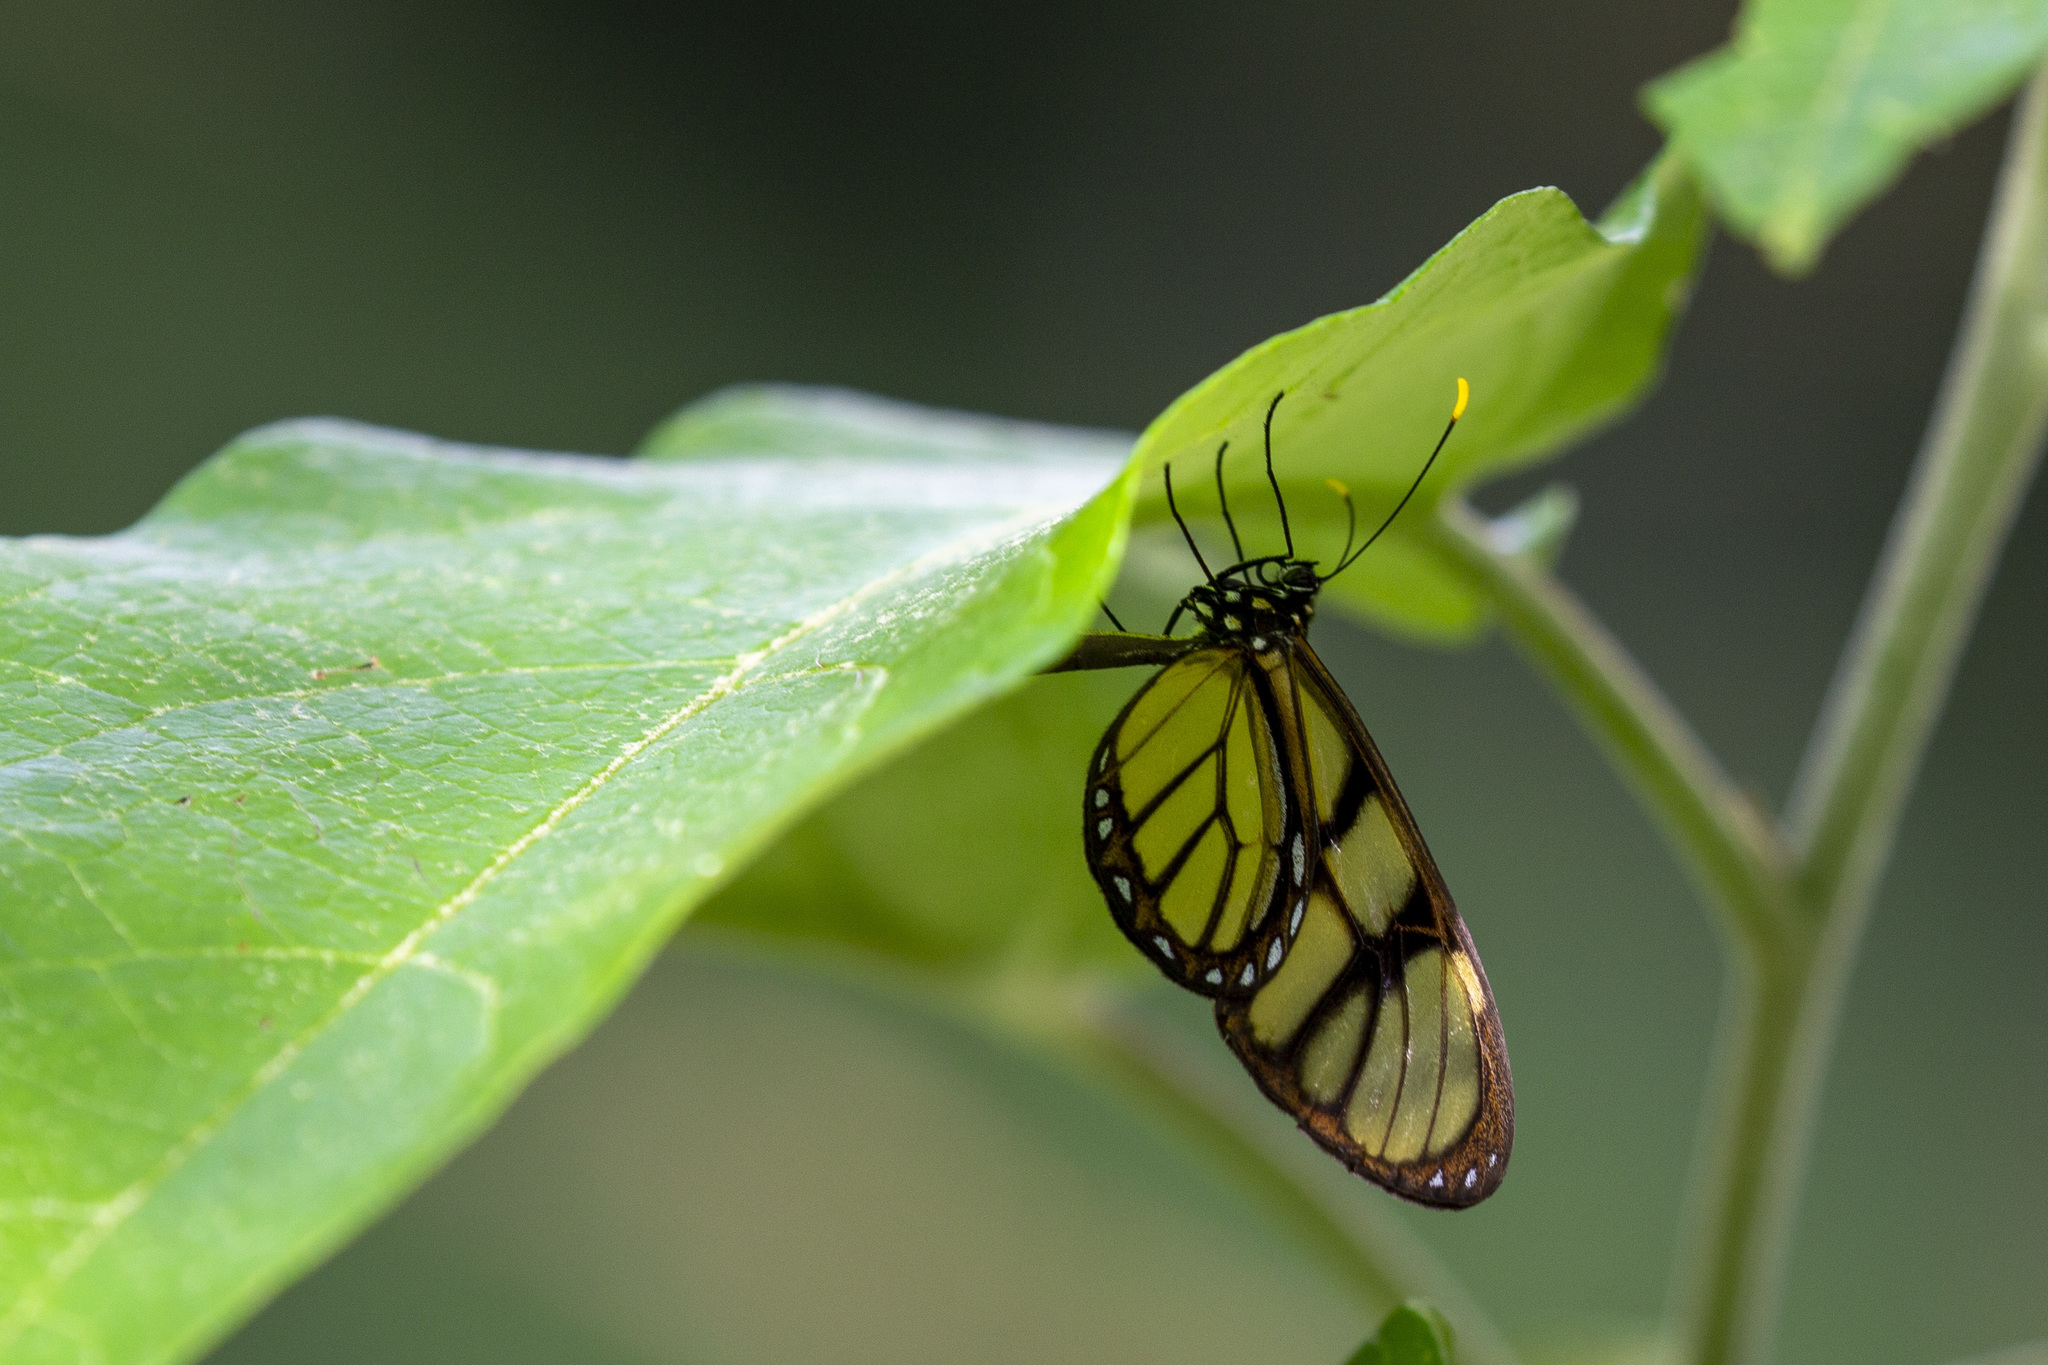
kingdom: Animalia
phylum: Arthropoda
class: Insecta
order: Lepidoptera
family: Nymphalidae
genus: Dircenna
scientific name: Dircenna dero
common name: Dero clearwing
